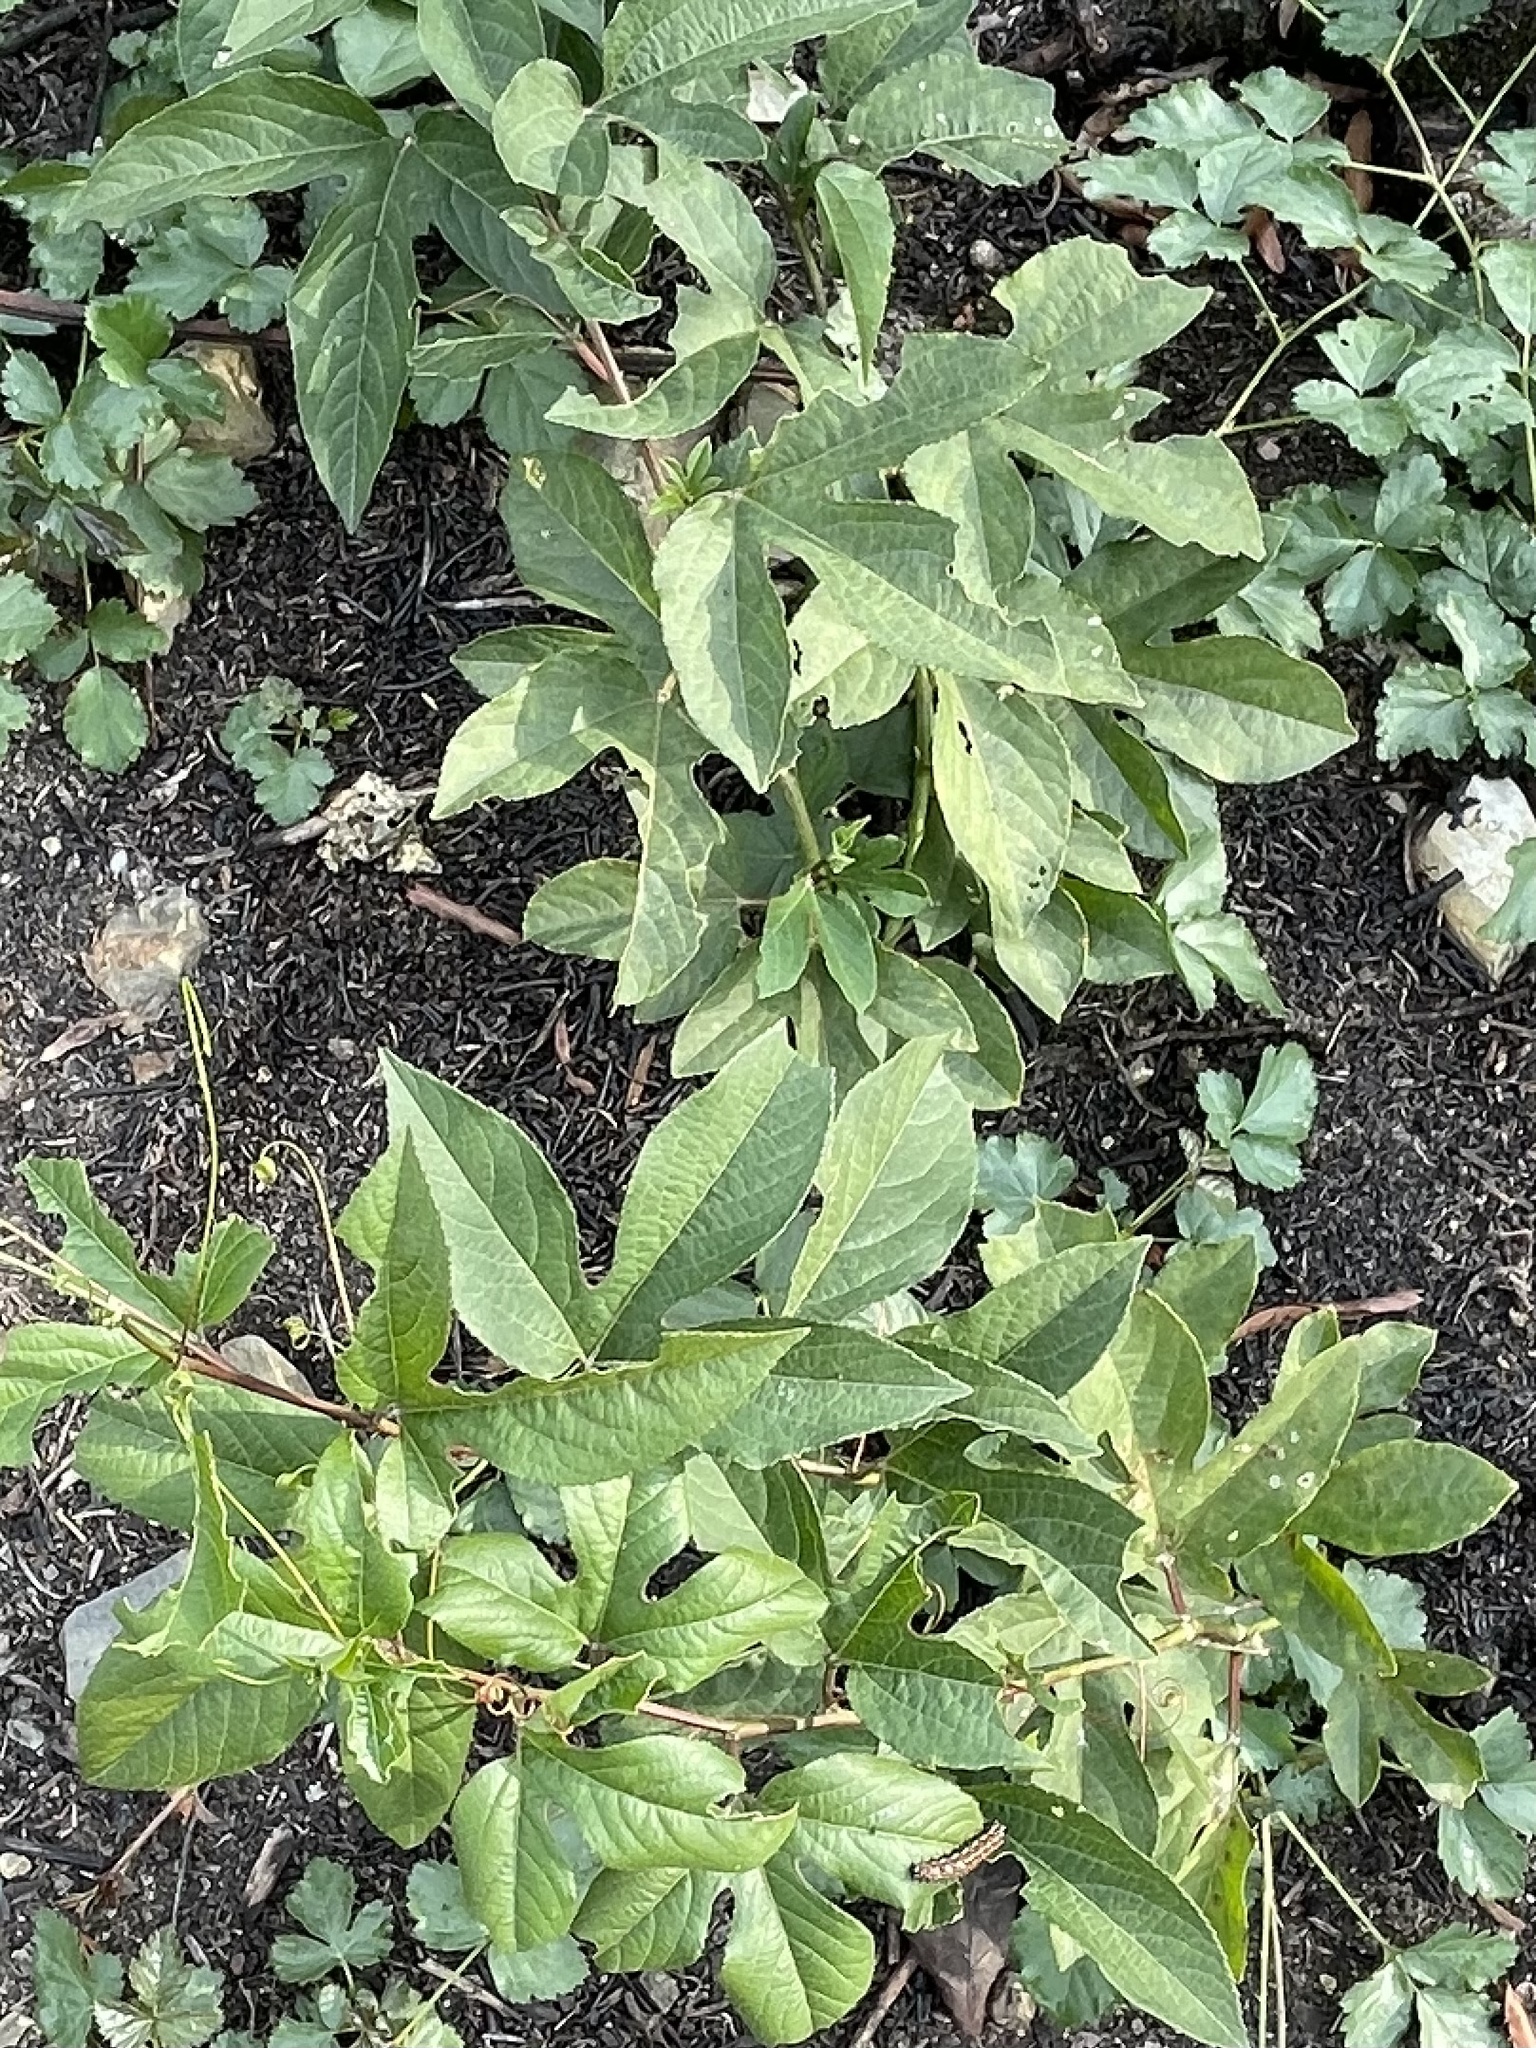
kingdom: Plantae
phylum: Tracheophyta
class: Magnoliopsida
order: Malpighiales
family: Passifloraceae
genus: Passiflora
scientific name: Passiflora incarnata
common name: Apricot-vine
